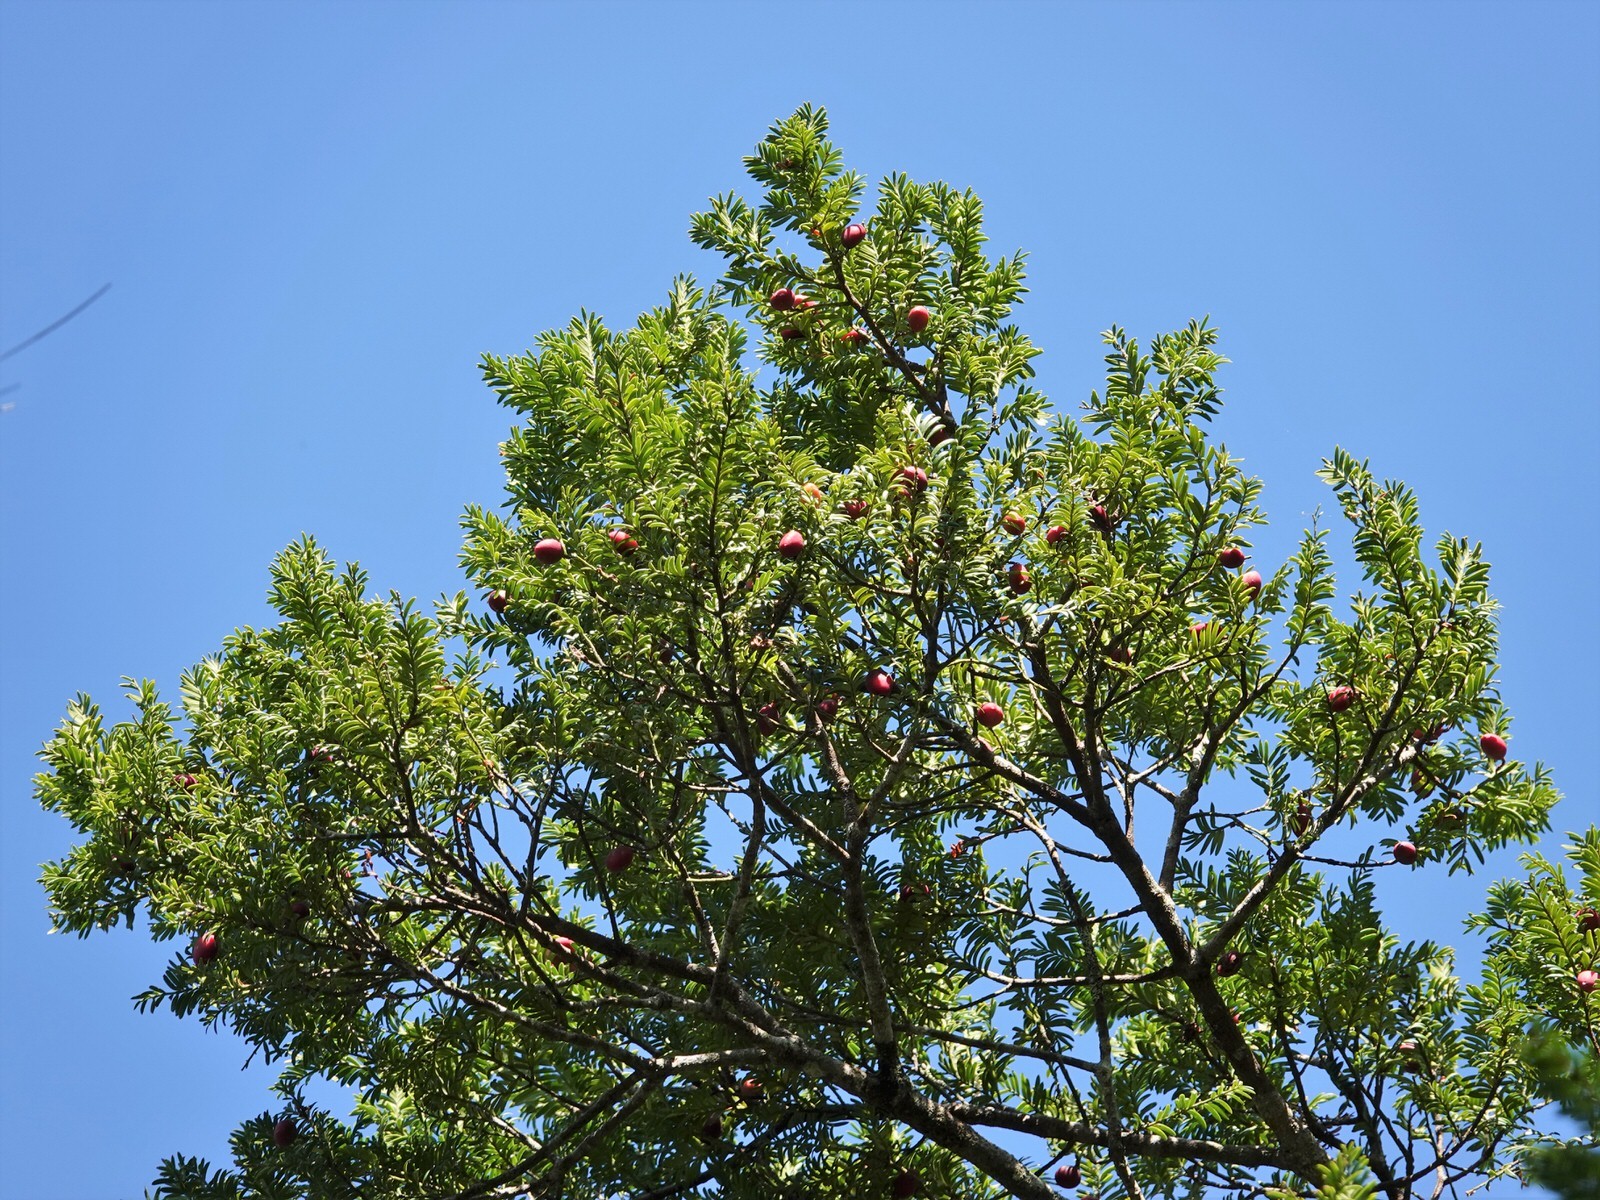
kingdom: Plantae
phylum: Tracheophyta
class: Pinopsida
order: Pinales
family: Podocarpaceae
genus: Prumnopitys
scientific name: Prumnopitys ferruginea
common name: Brown pine
